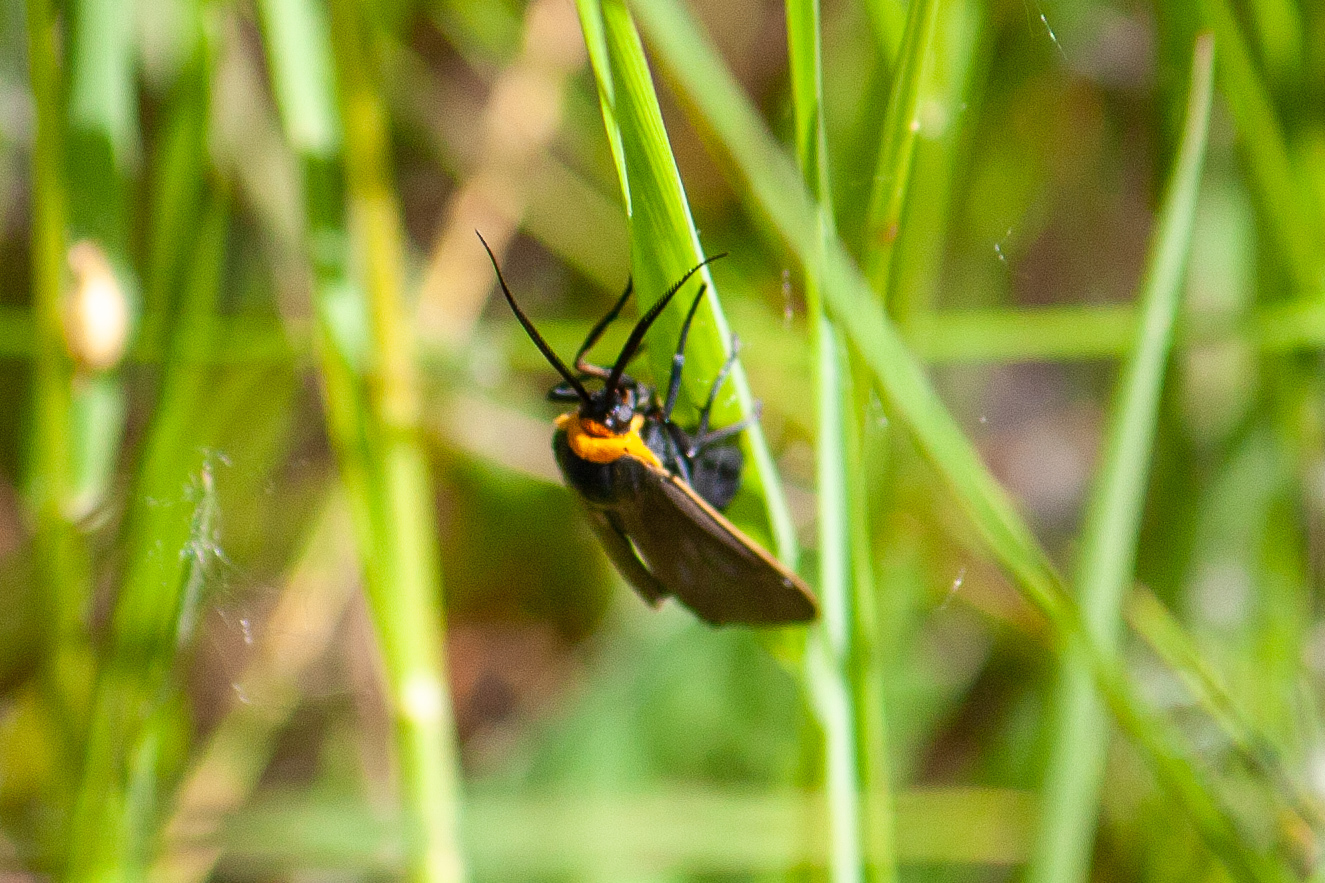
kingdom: Animalia
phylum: Arthropoda
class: Insecta
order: Lepidoptera
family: Erebidae
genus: Cisseps
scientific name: Cisseps fulvicollis
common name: Yellow-collared scape moth
